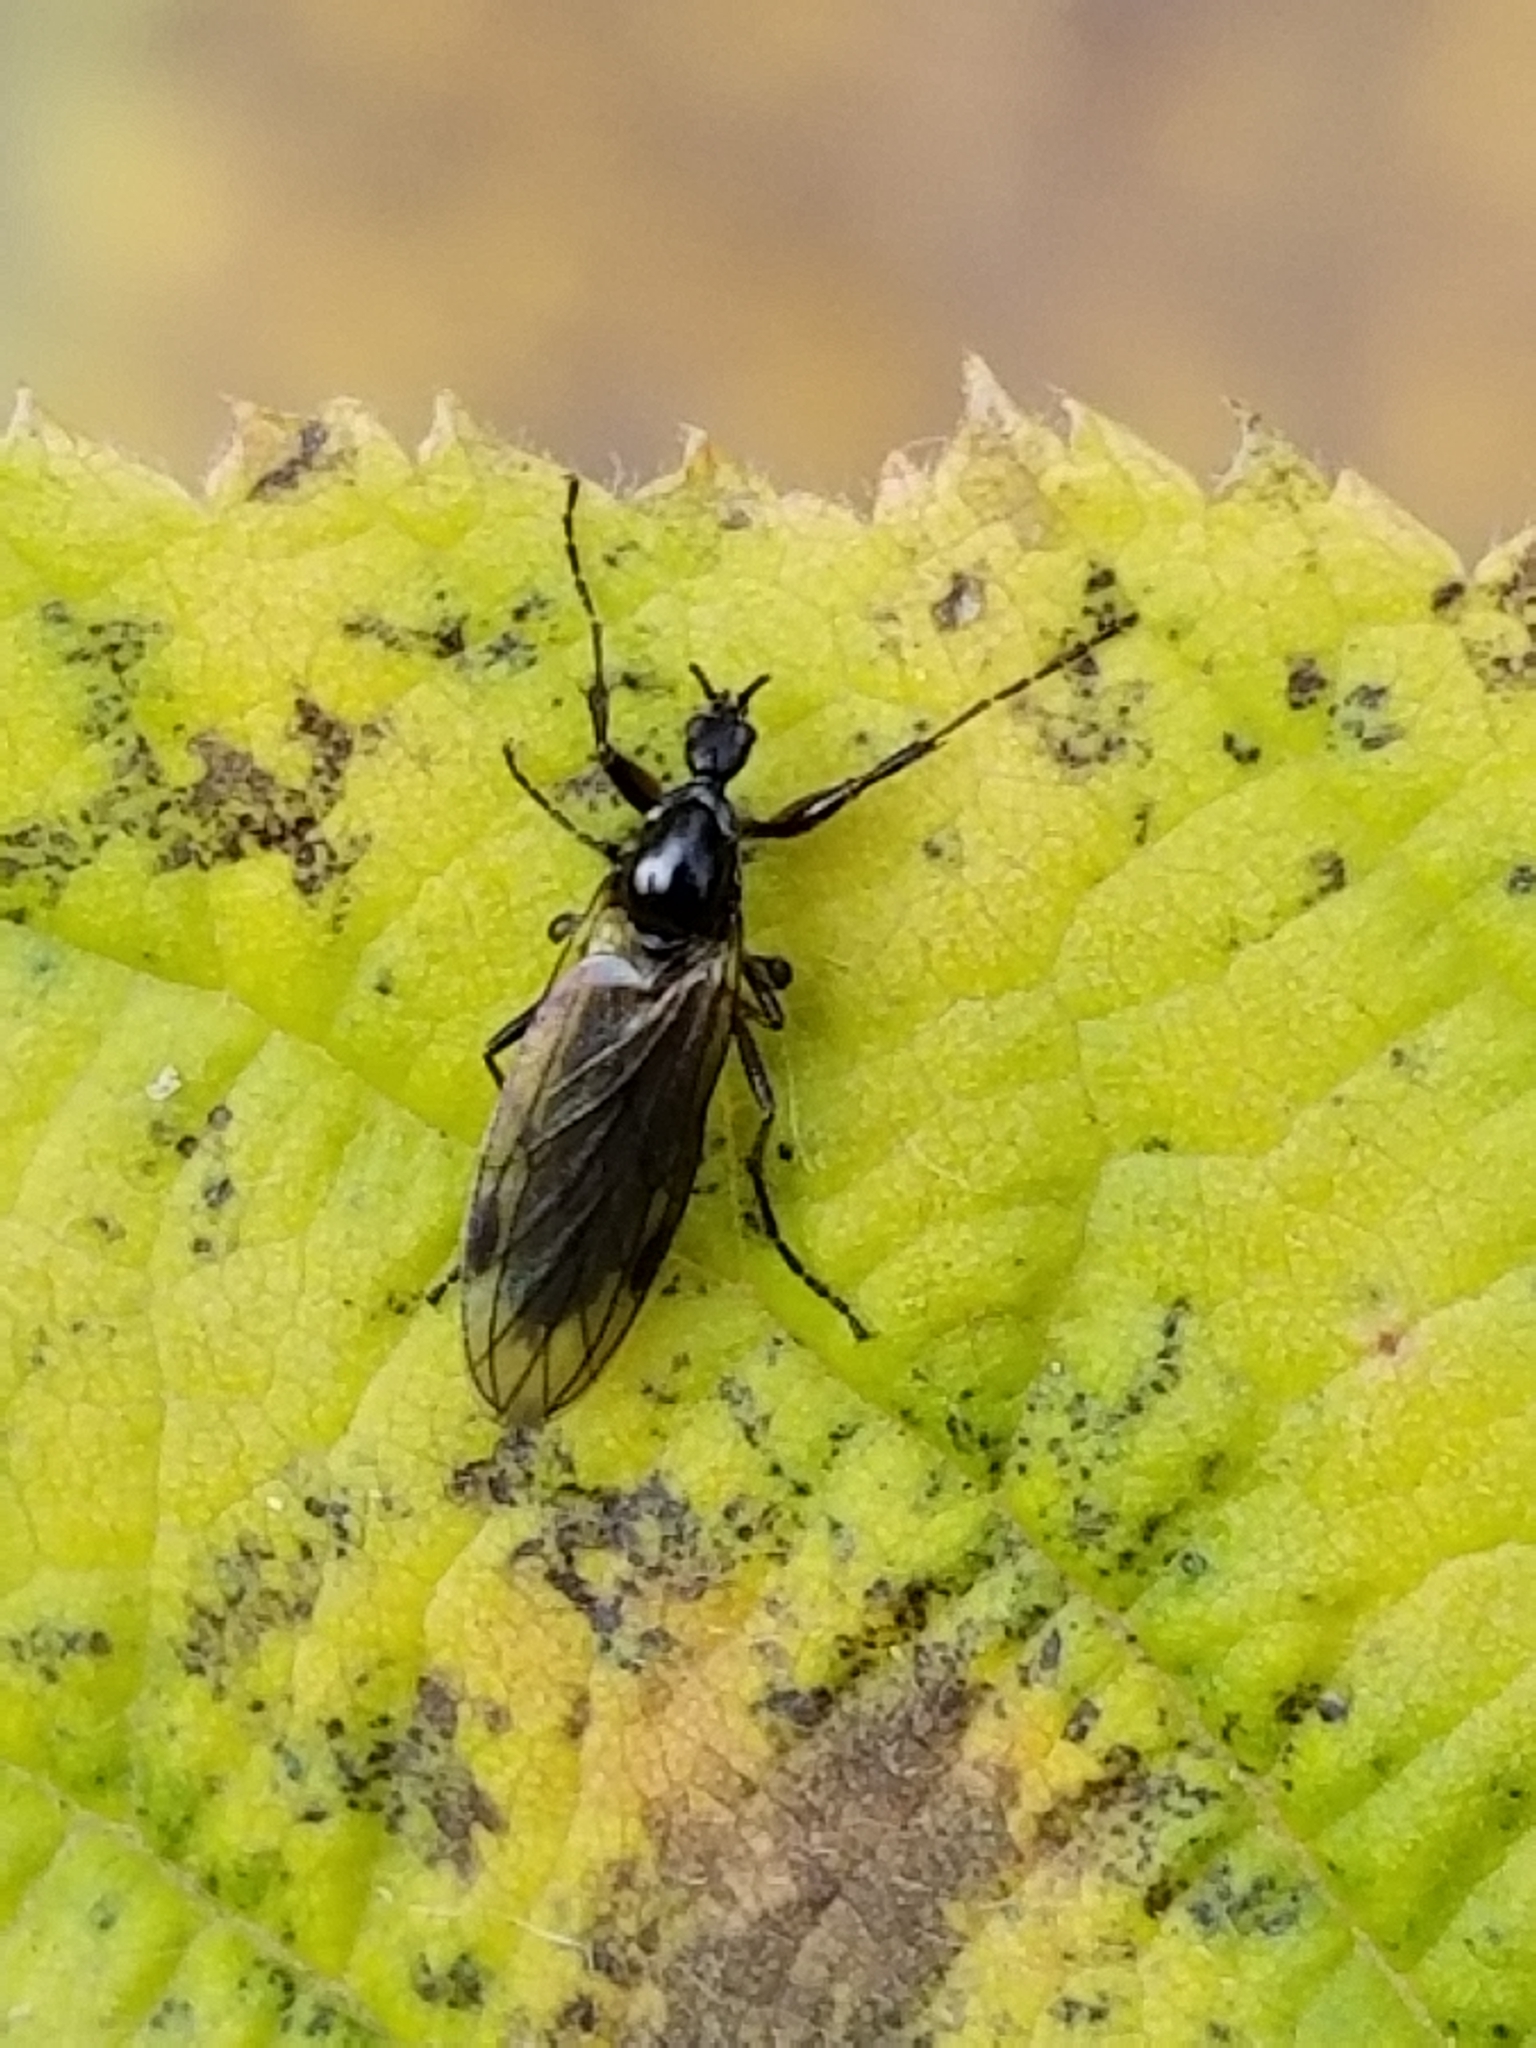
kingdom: Animalia
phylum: Arthropoda
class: Insecta
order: Diptera
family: Bibionidae
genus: Bibio
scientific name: Bibio slossonae
